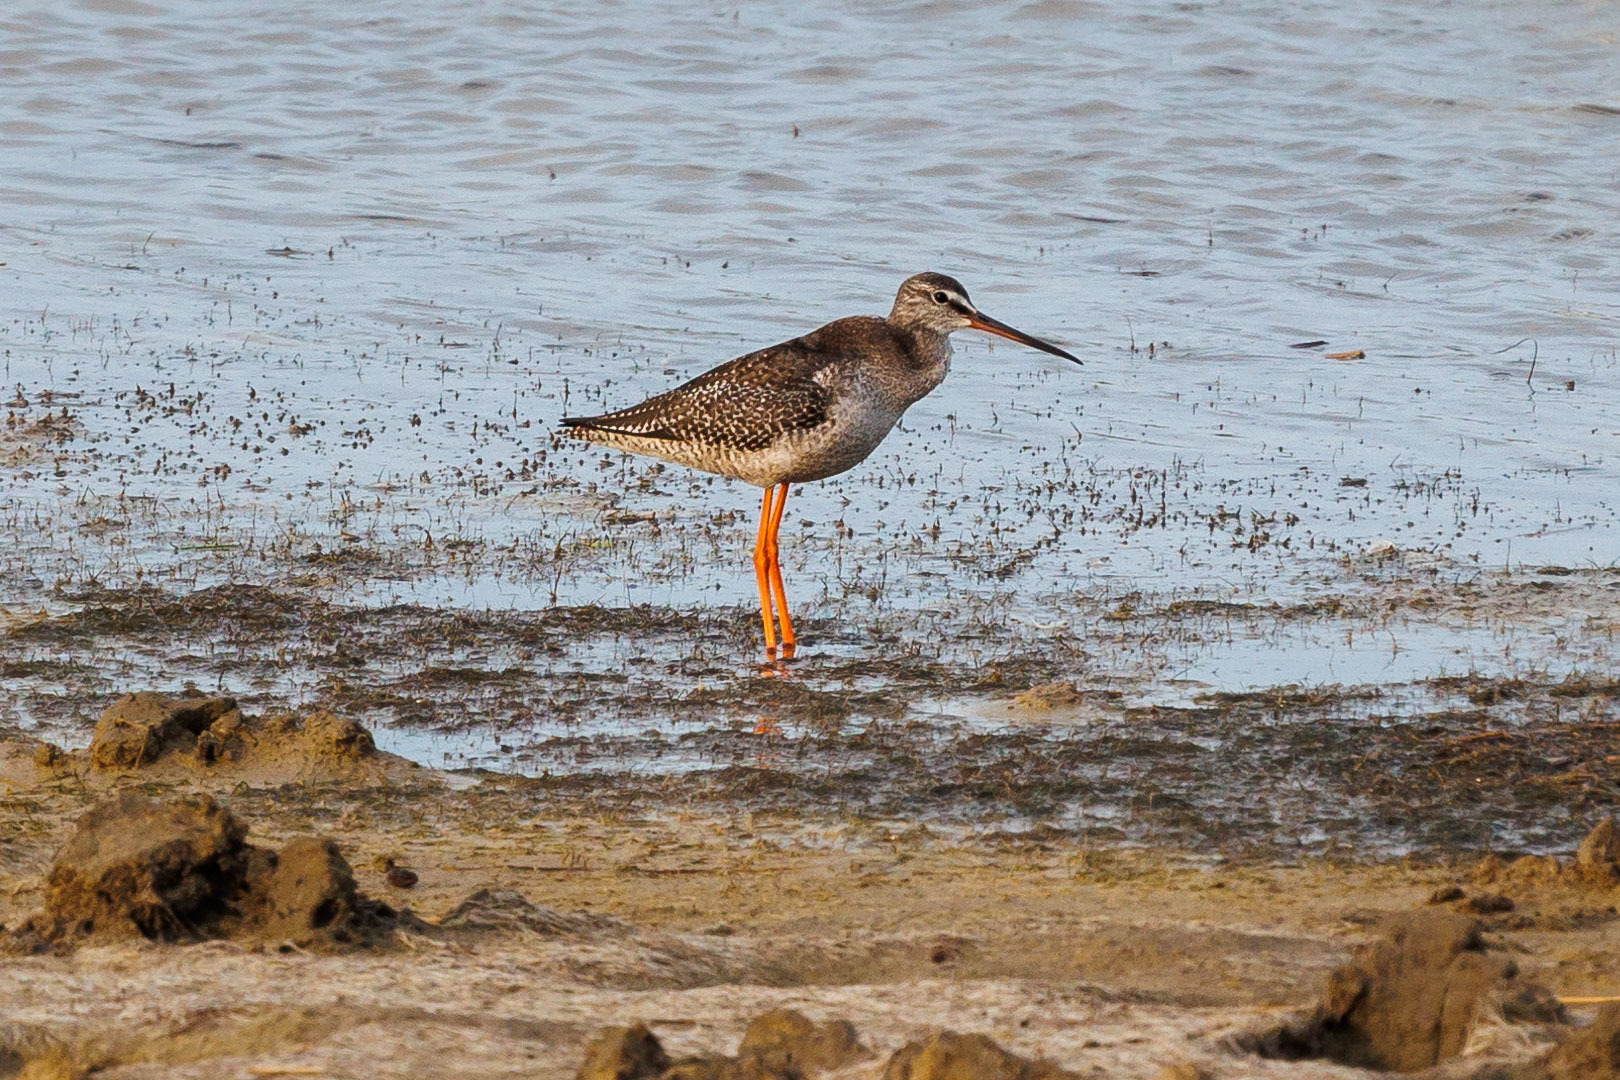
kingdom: Animalia
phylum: Chordata
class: Aves
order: Charadriiformes
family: Scolopacidae
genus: Tringa
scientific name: Tringa erythropus
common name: Spotted redshank
